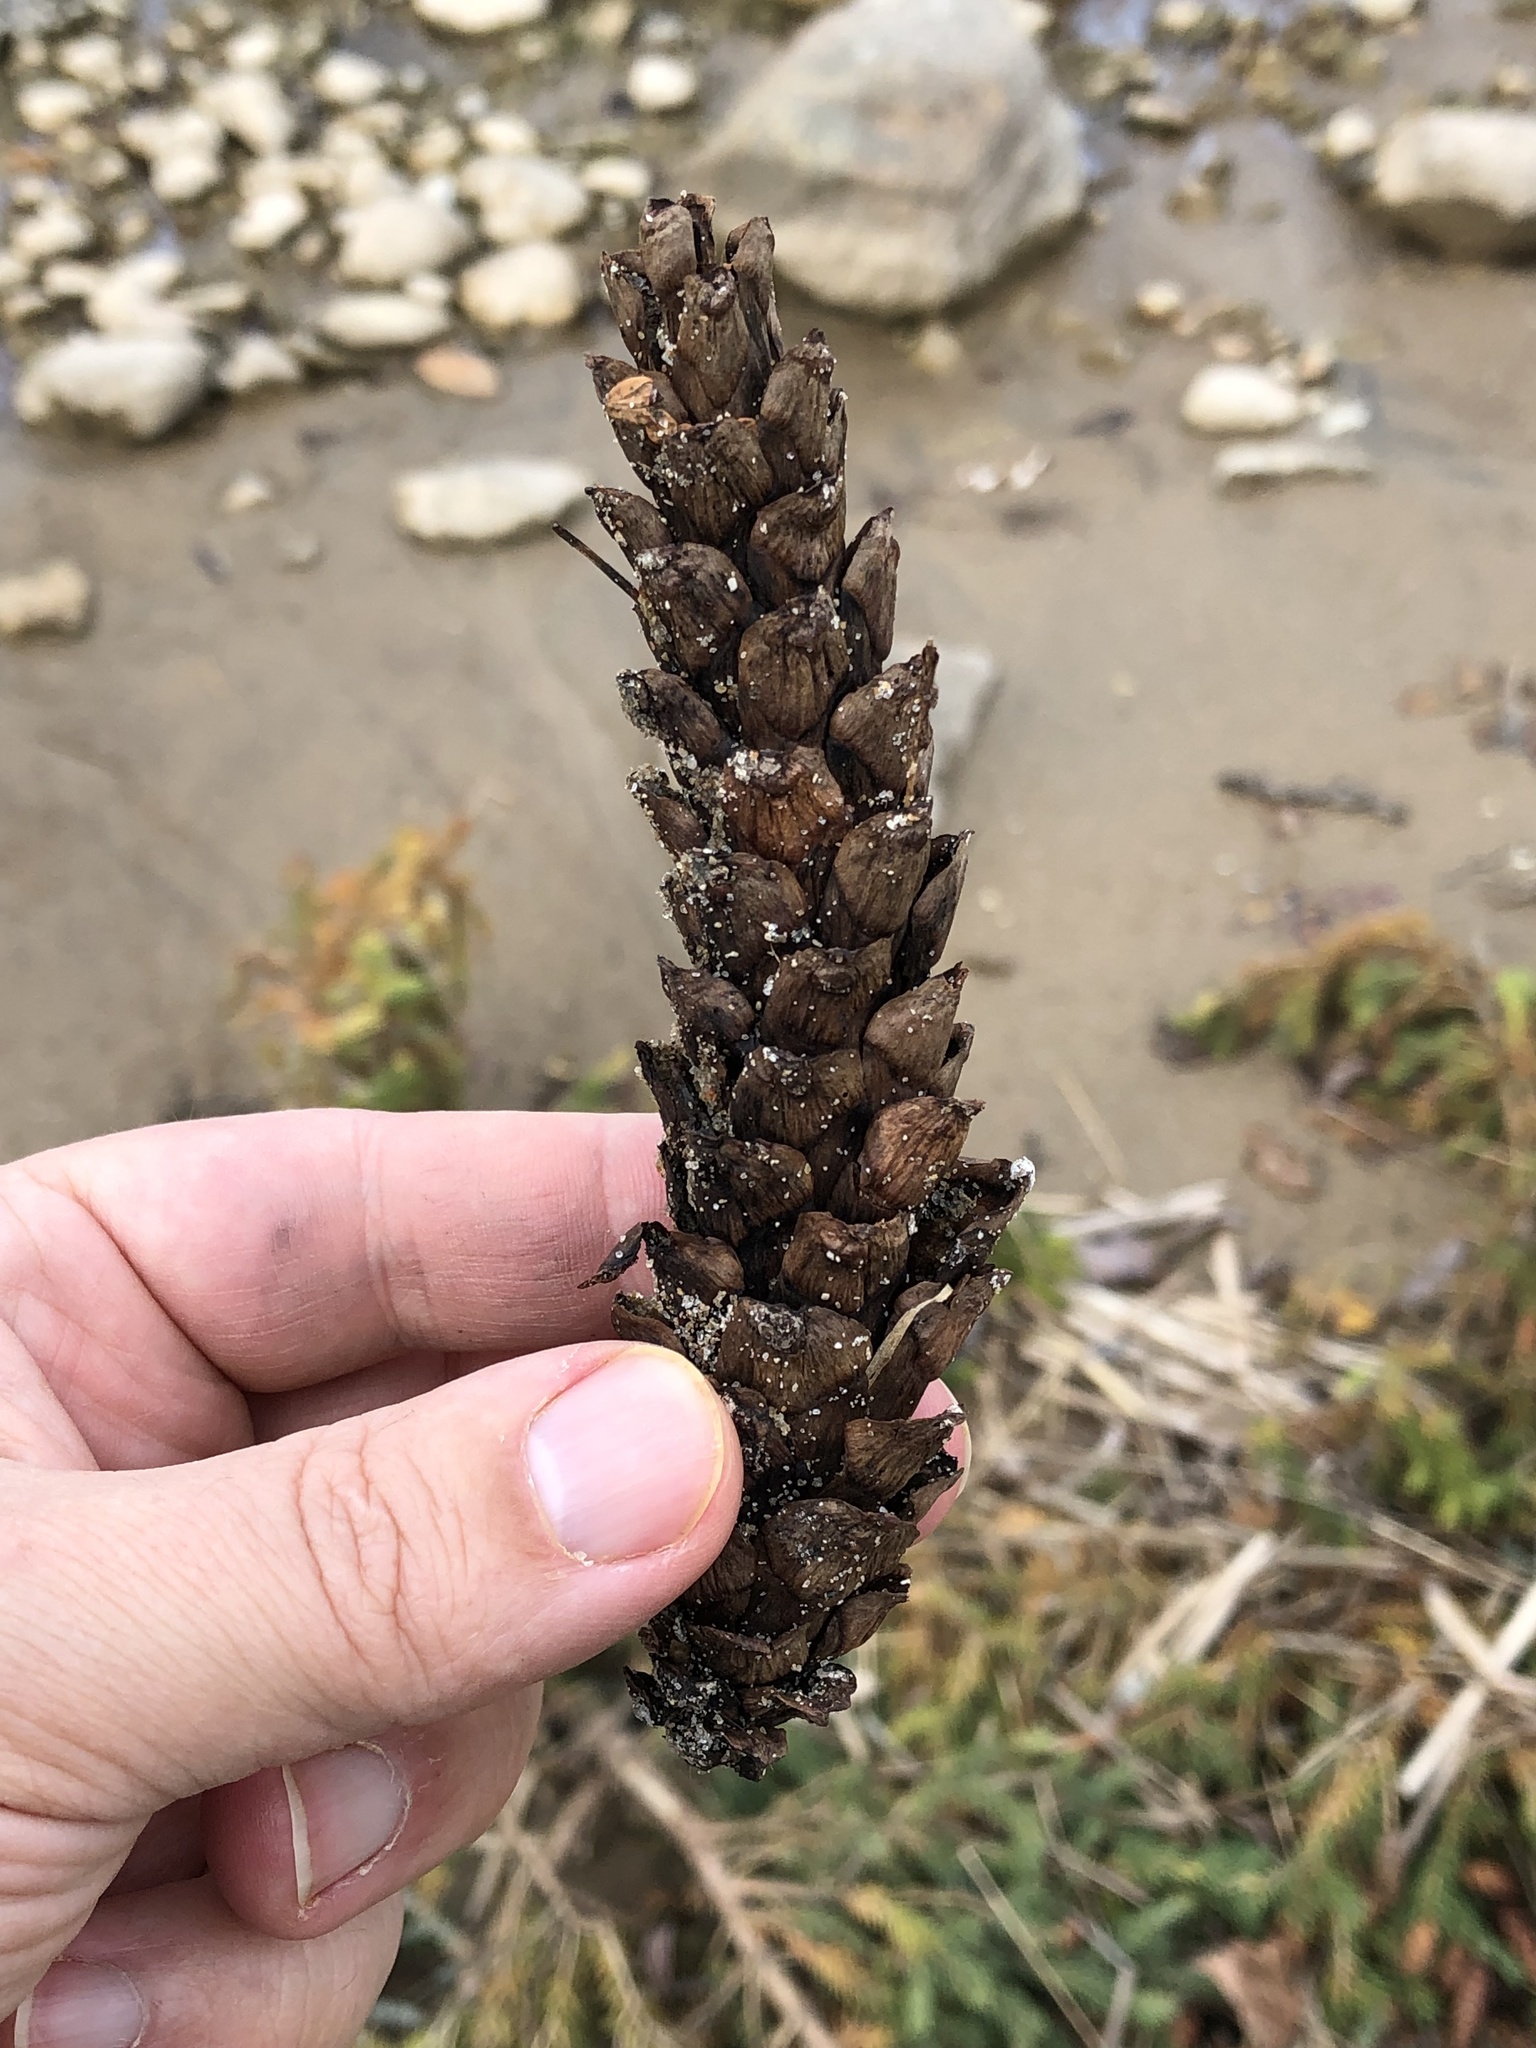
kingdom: Plantae
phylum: Tracheophyta
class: Pinopsida
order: Pinales
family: Pinaceae
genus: Pinus
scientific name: Pinus strobus
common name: Weymouth pine
